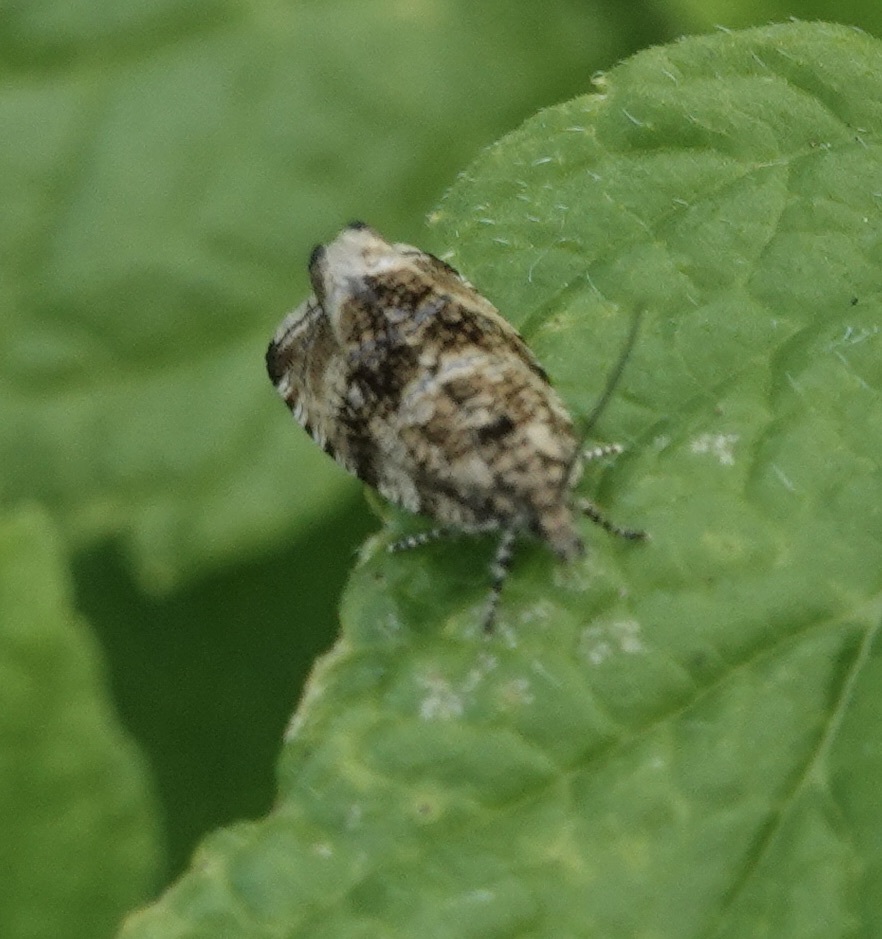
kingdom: Animalia
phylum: Arthropoda
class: Insecta
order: Lepidoptera
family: Tortricidae
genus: Syricoris
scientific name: Syricoris lacunana
